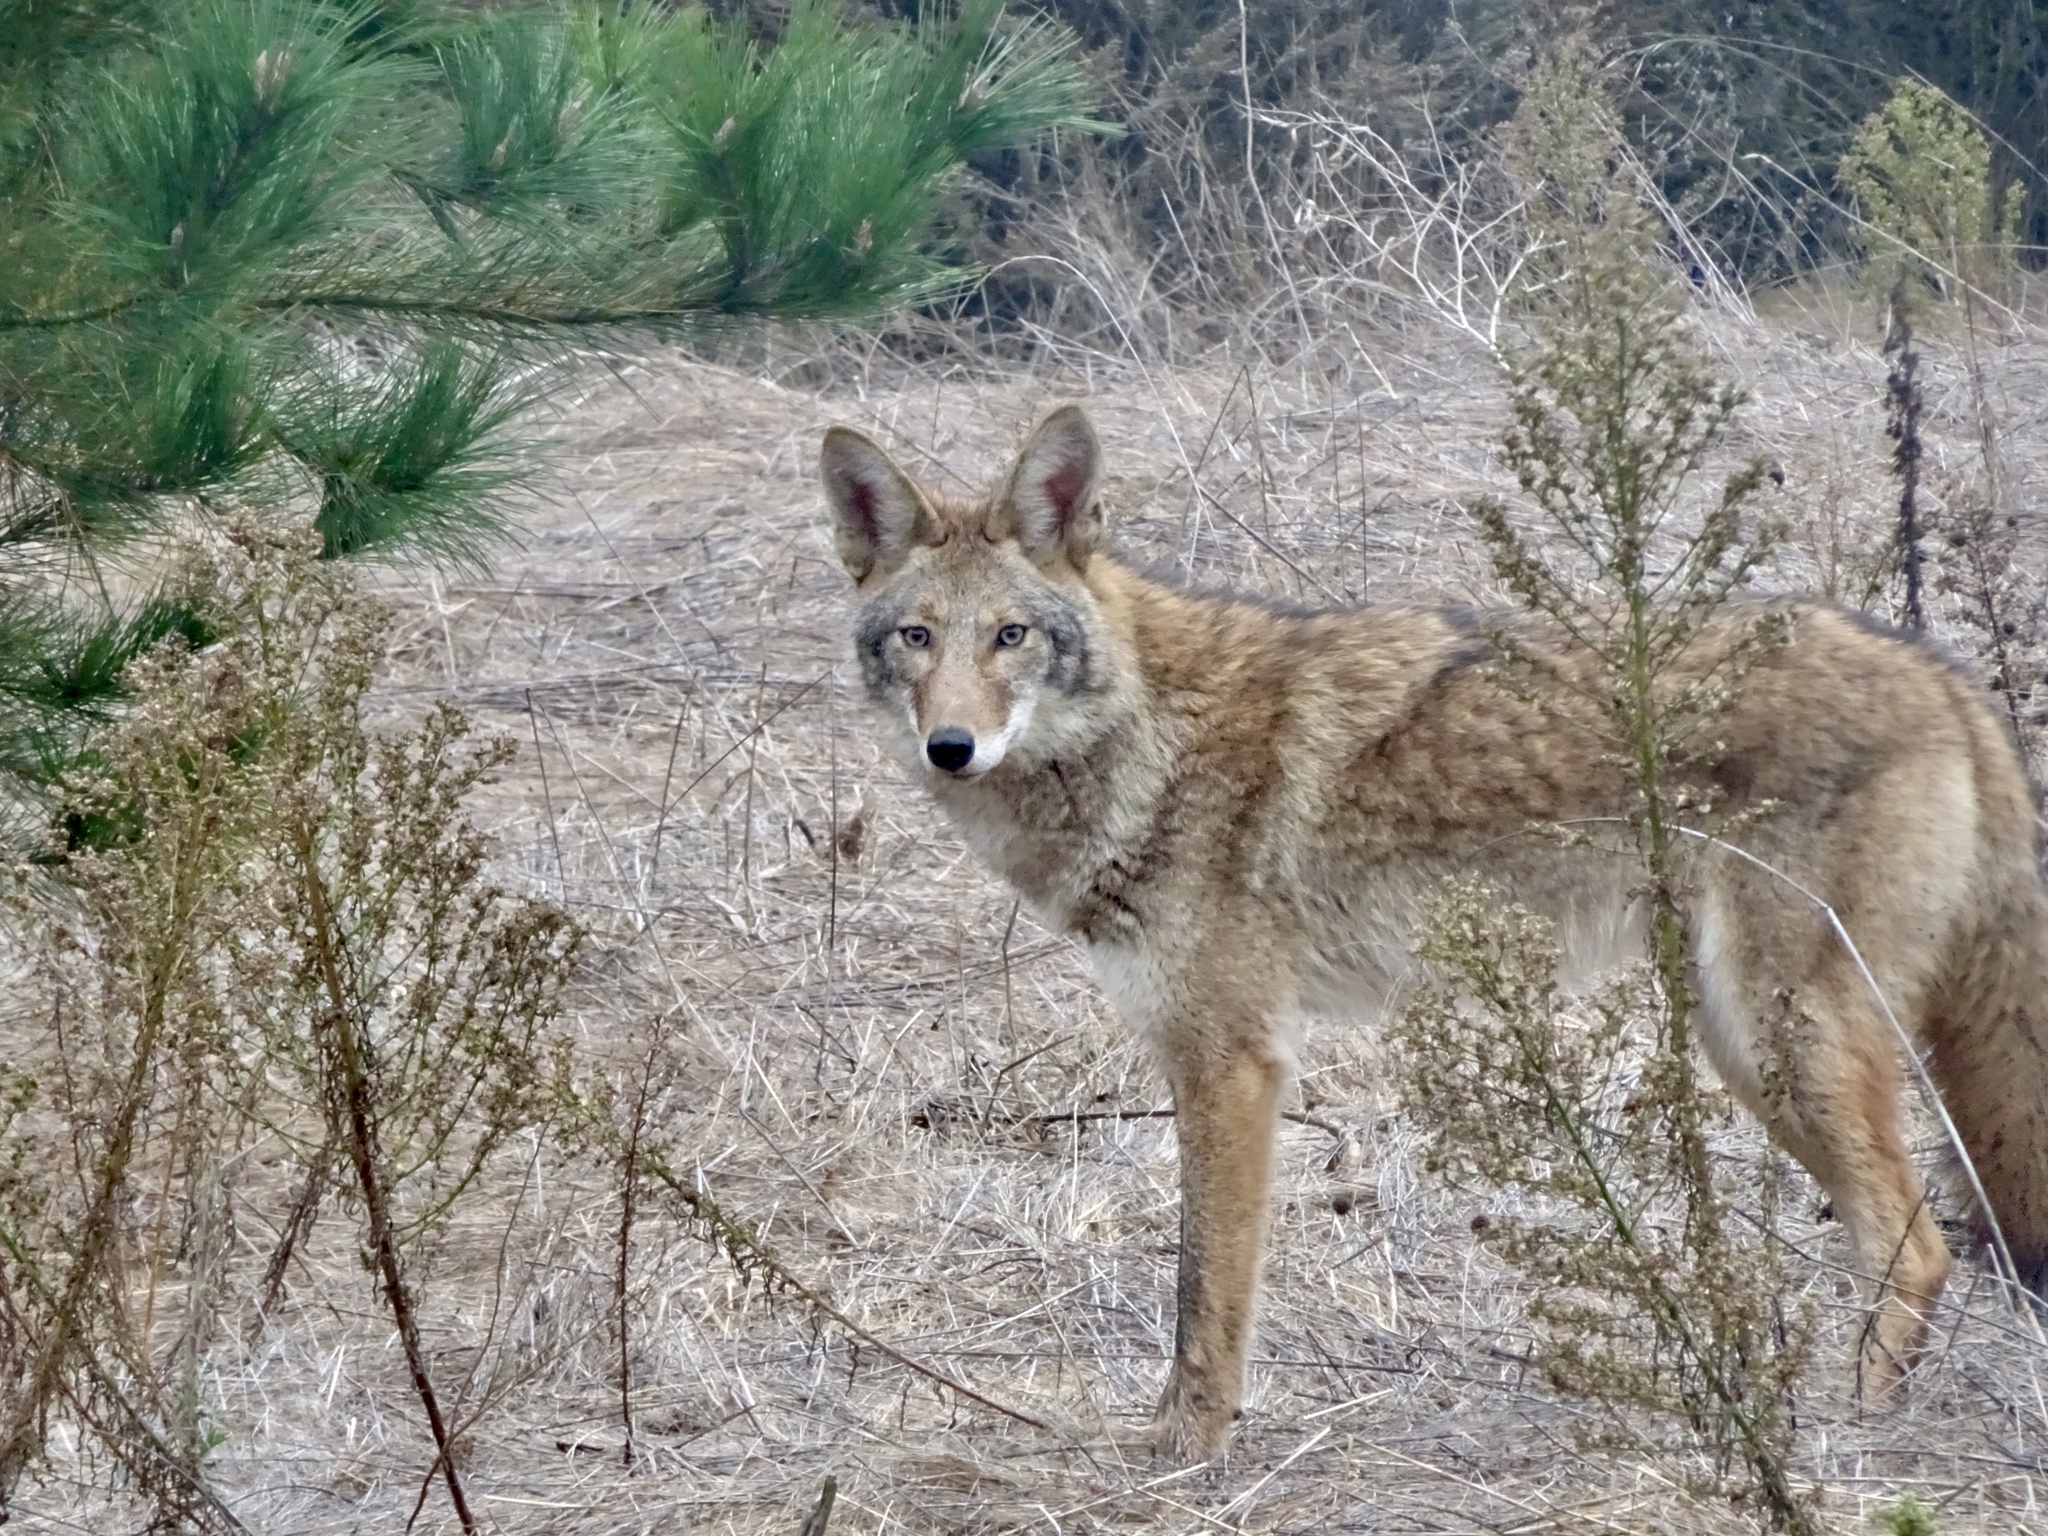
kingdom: Animalia
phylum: Chordata
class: Mammalia
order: Carnivora
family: Canidae
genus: Canis
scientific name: Canis latrans
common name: Coyote
